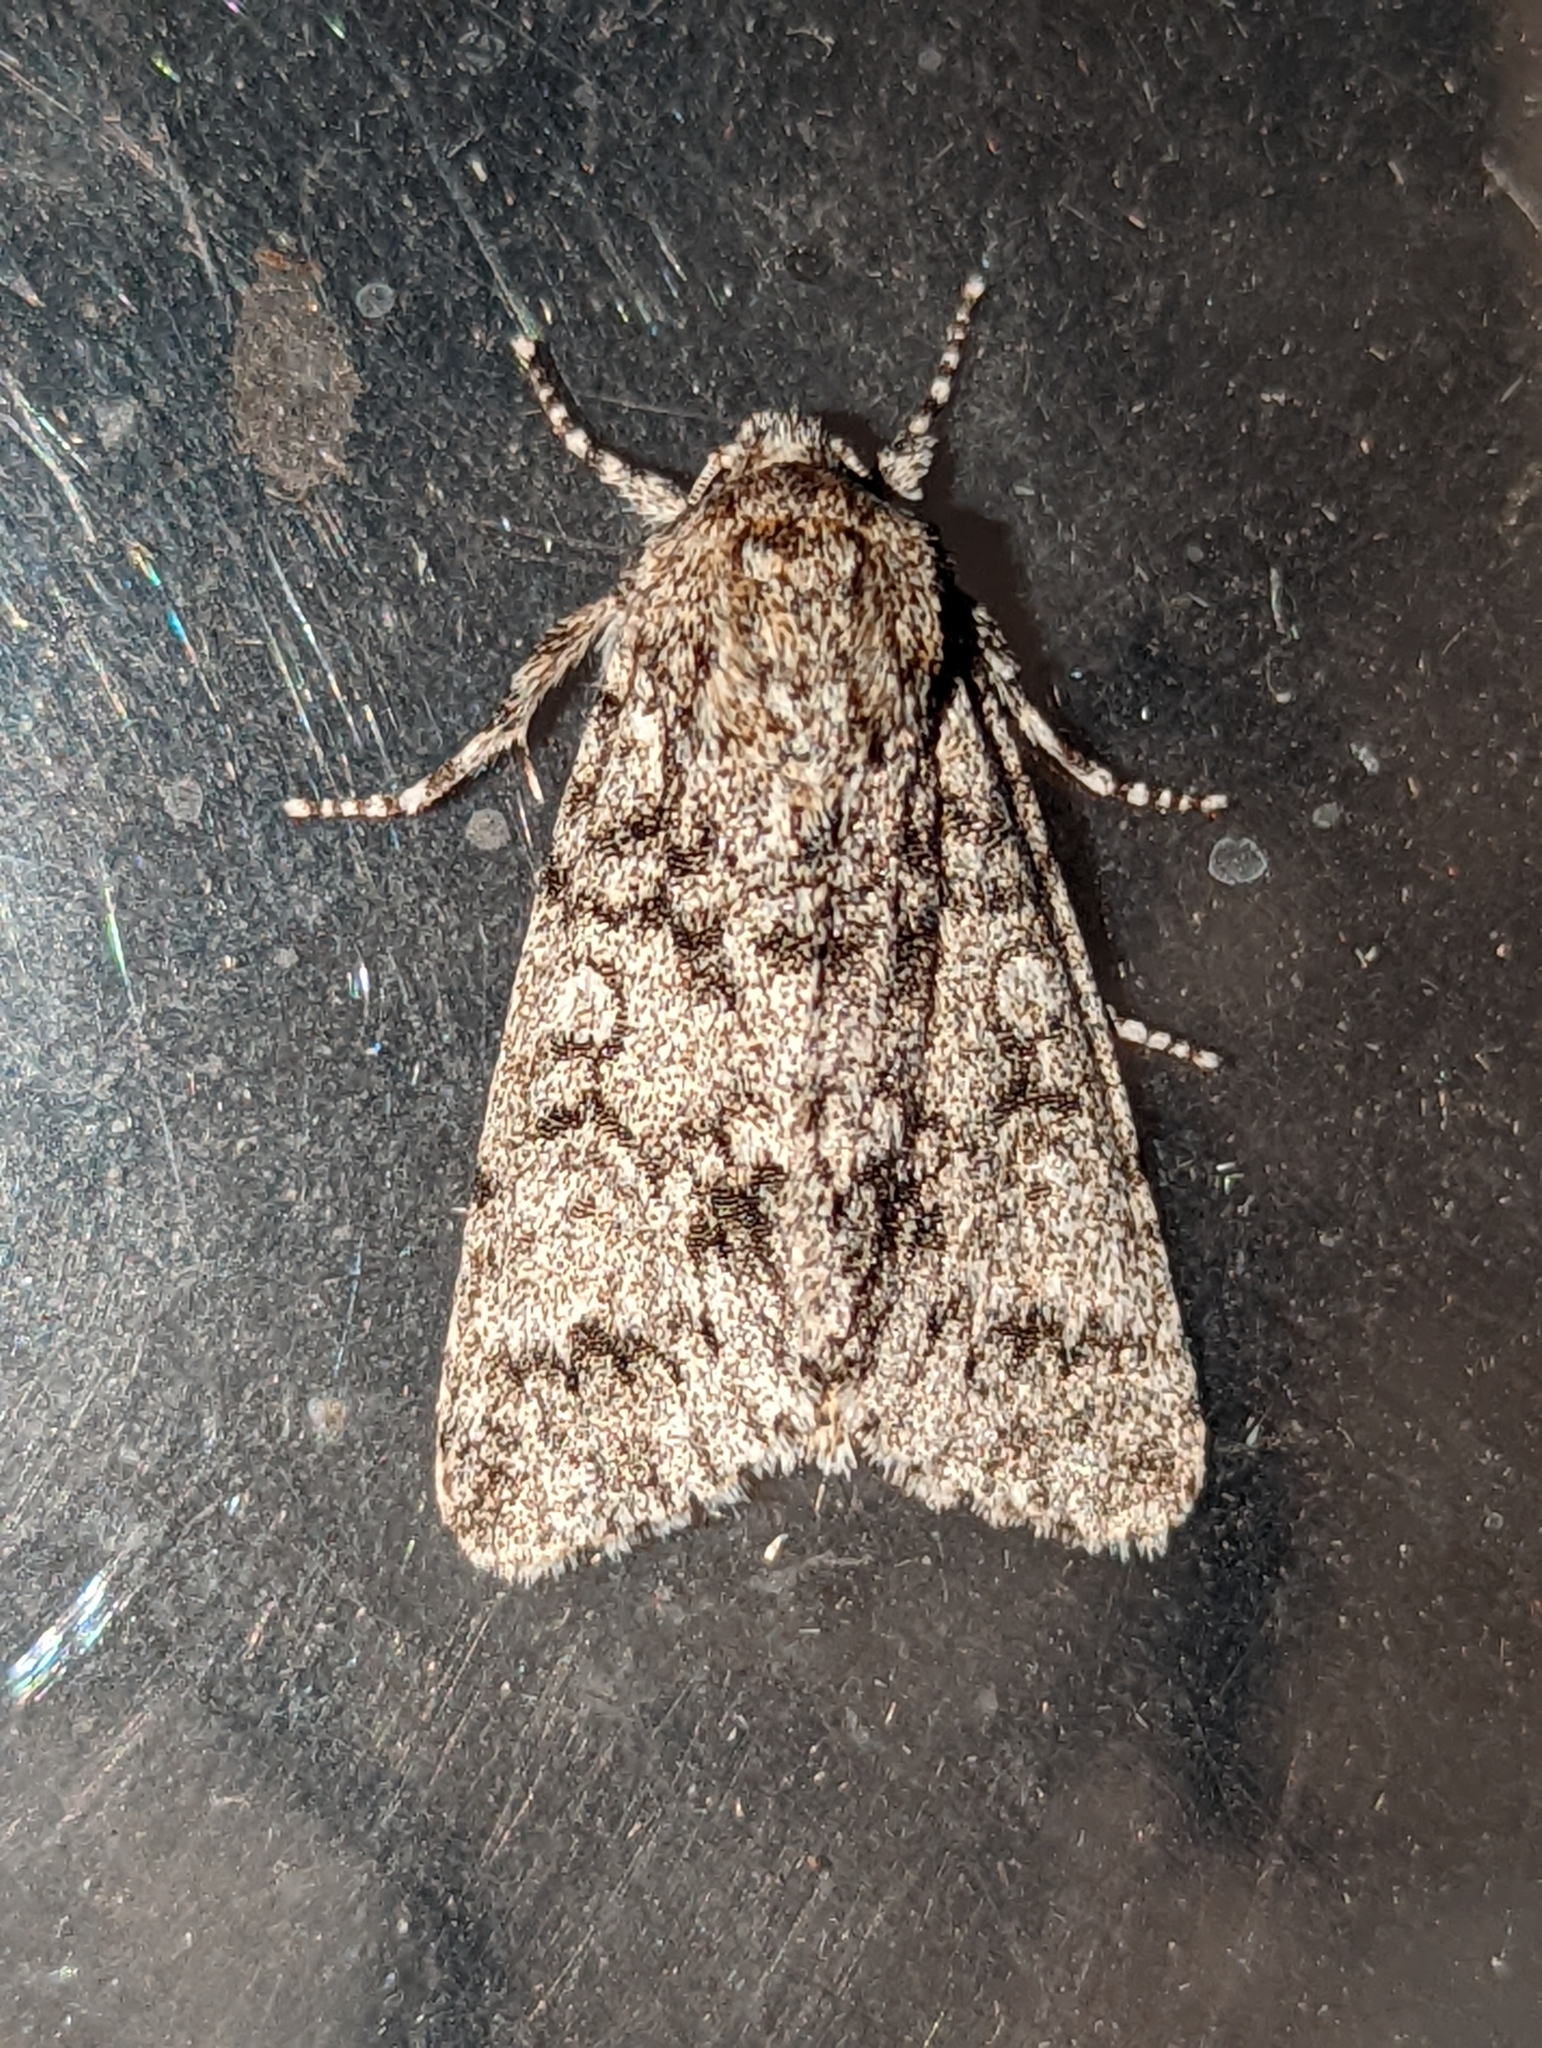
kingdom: Animalia
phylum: Arthropoda
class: Insecta
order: Lepidoptera
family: Noctuidae
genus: Acronicta
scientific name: Acronicta megacephala
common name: Poplar grey
